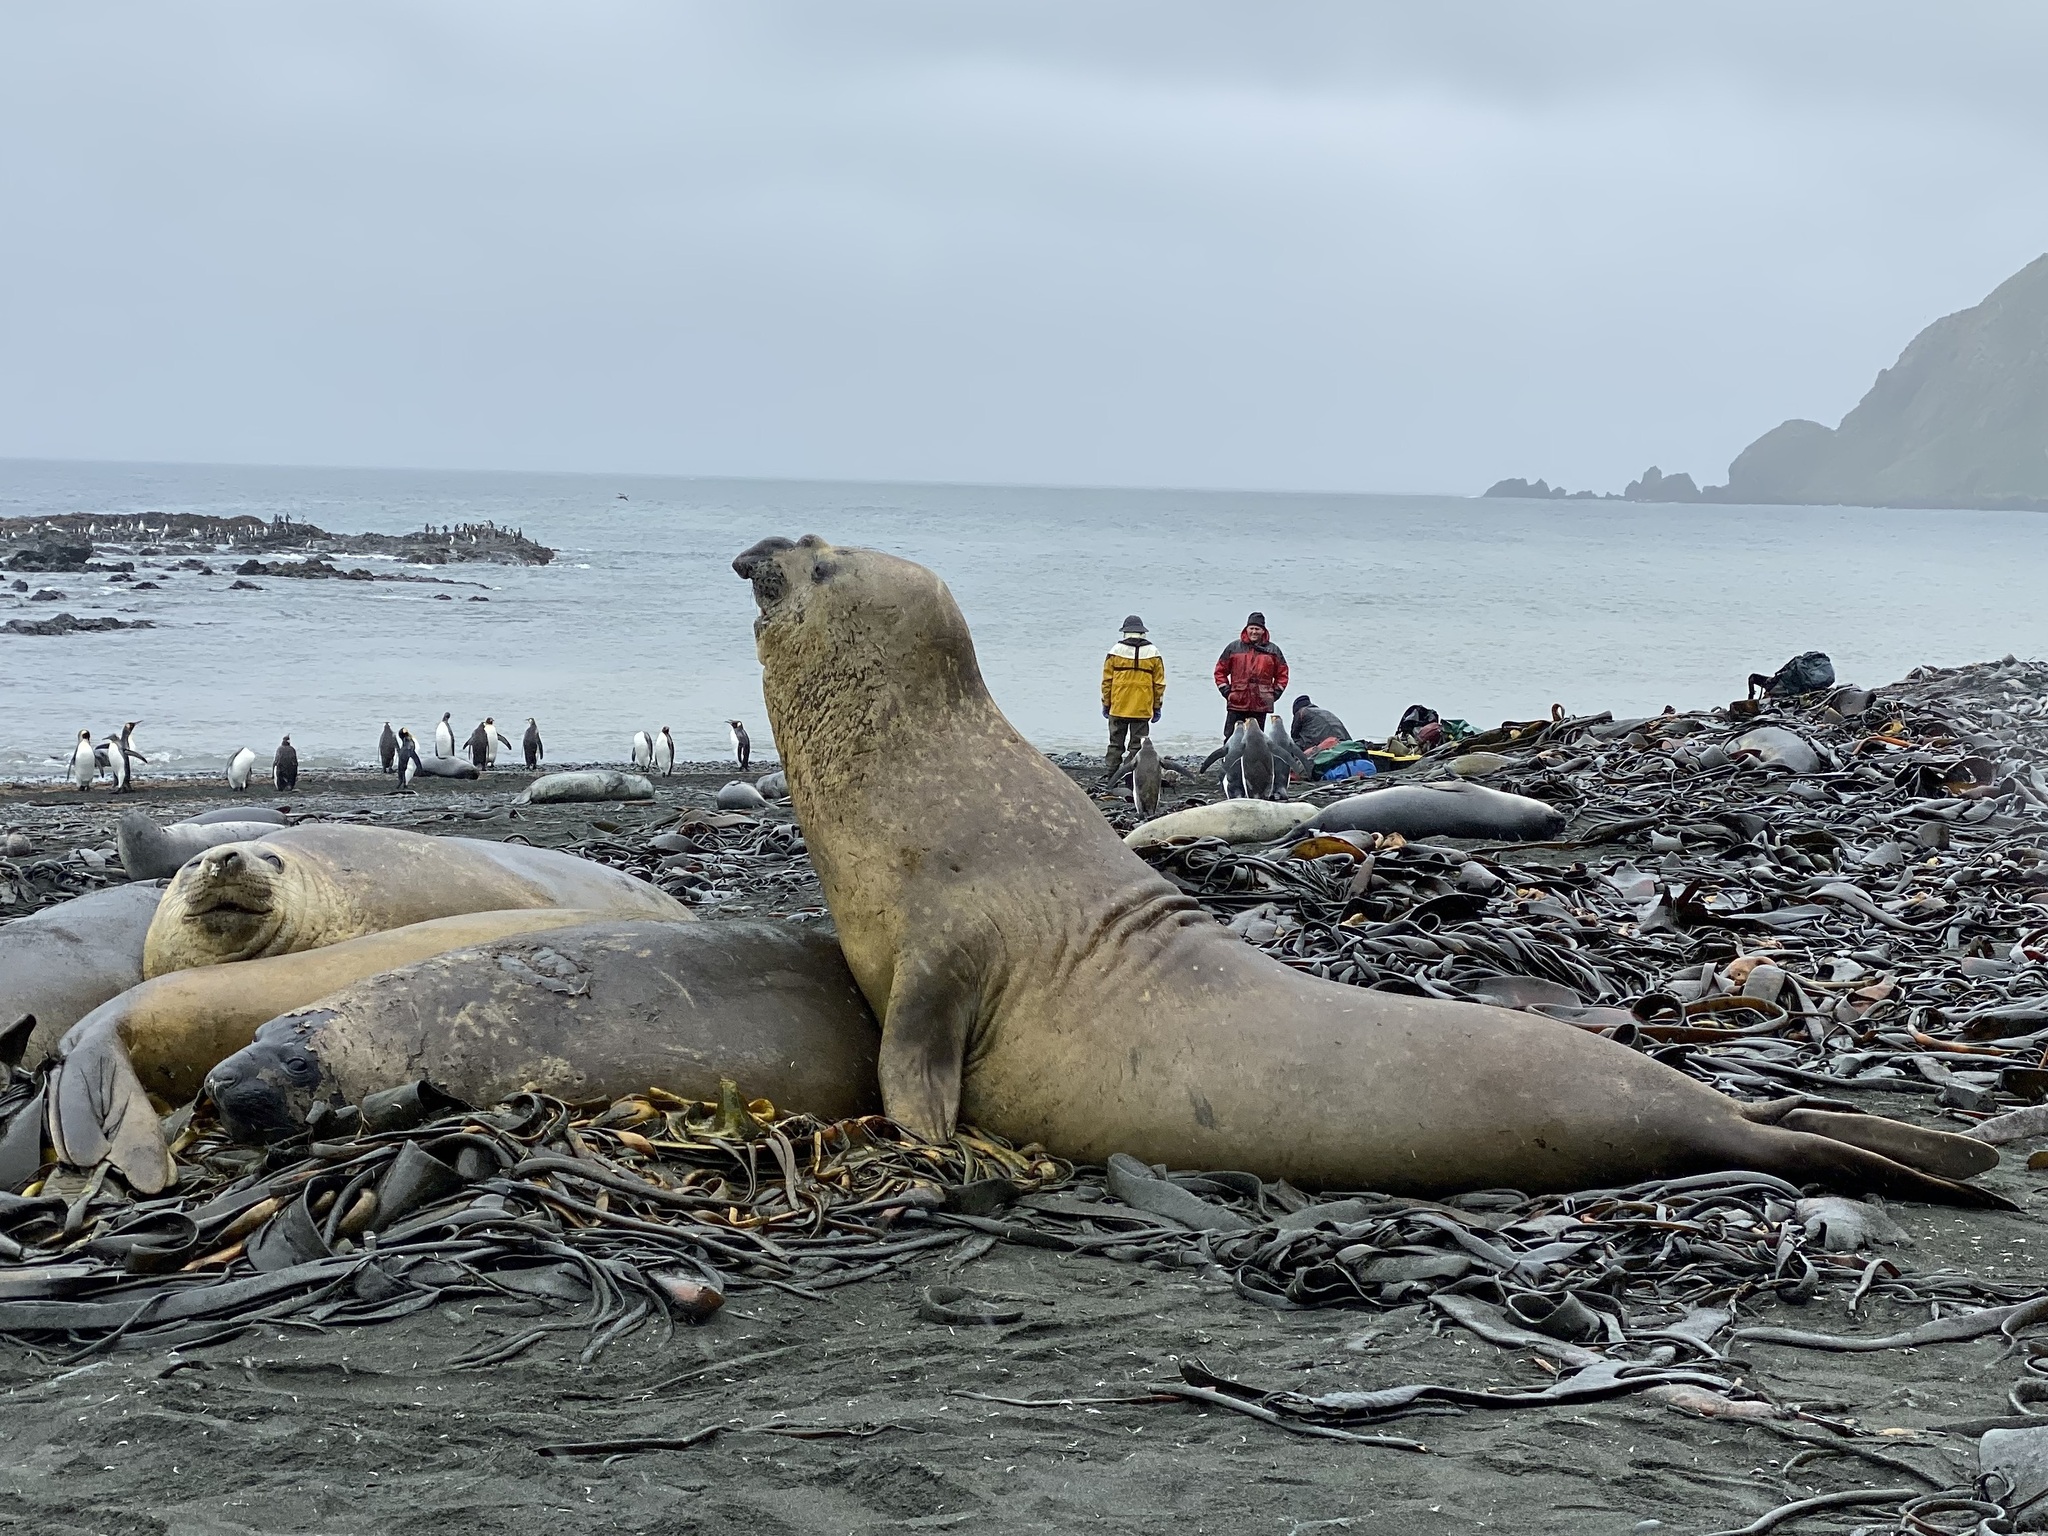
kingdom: Animalia
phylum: Chordata
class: Mammalia
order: Carnivora
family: Phocidae
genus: Mirounga
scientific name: Mirounga leonina
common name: Southern elephant seal
